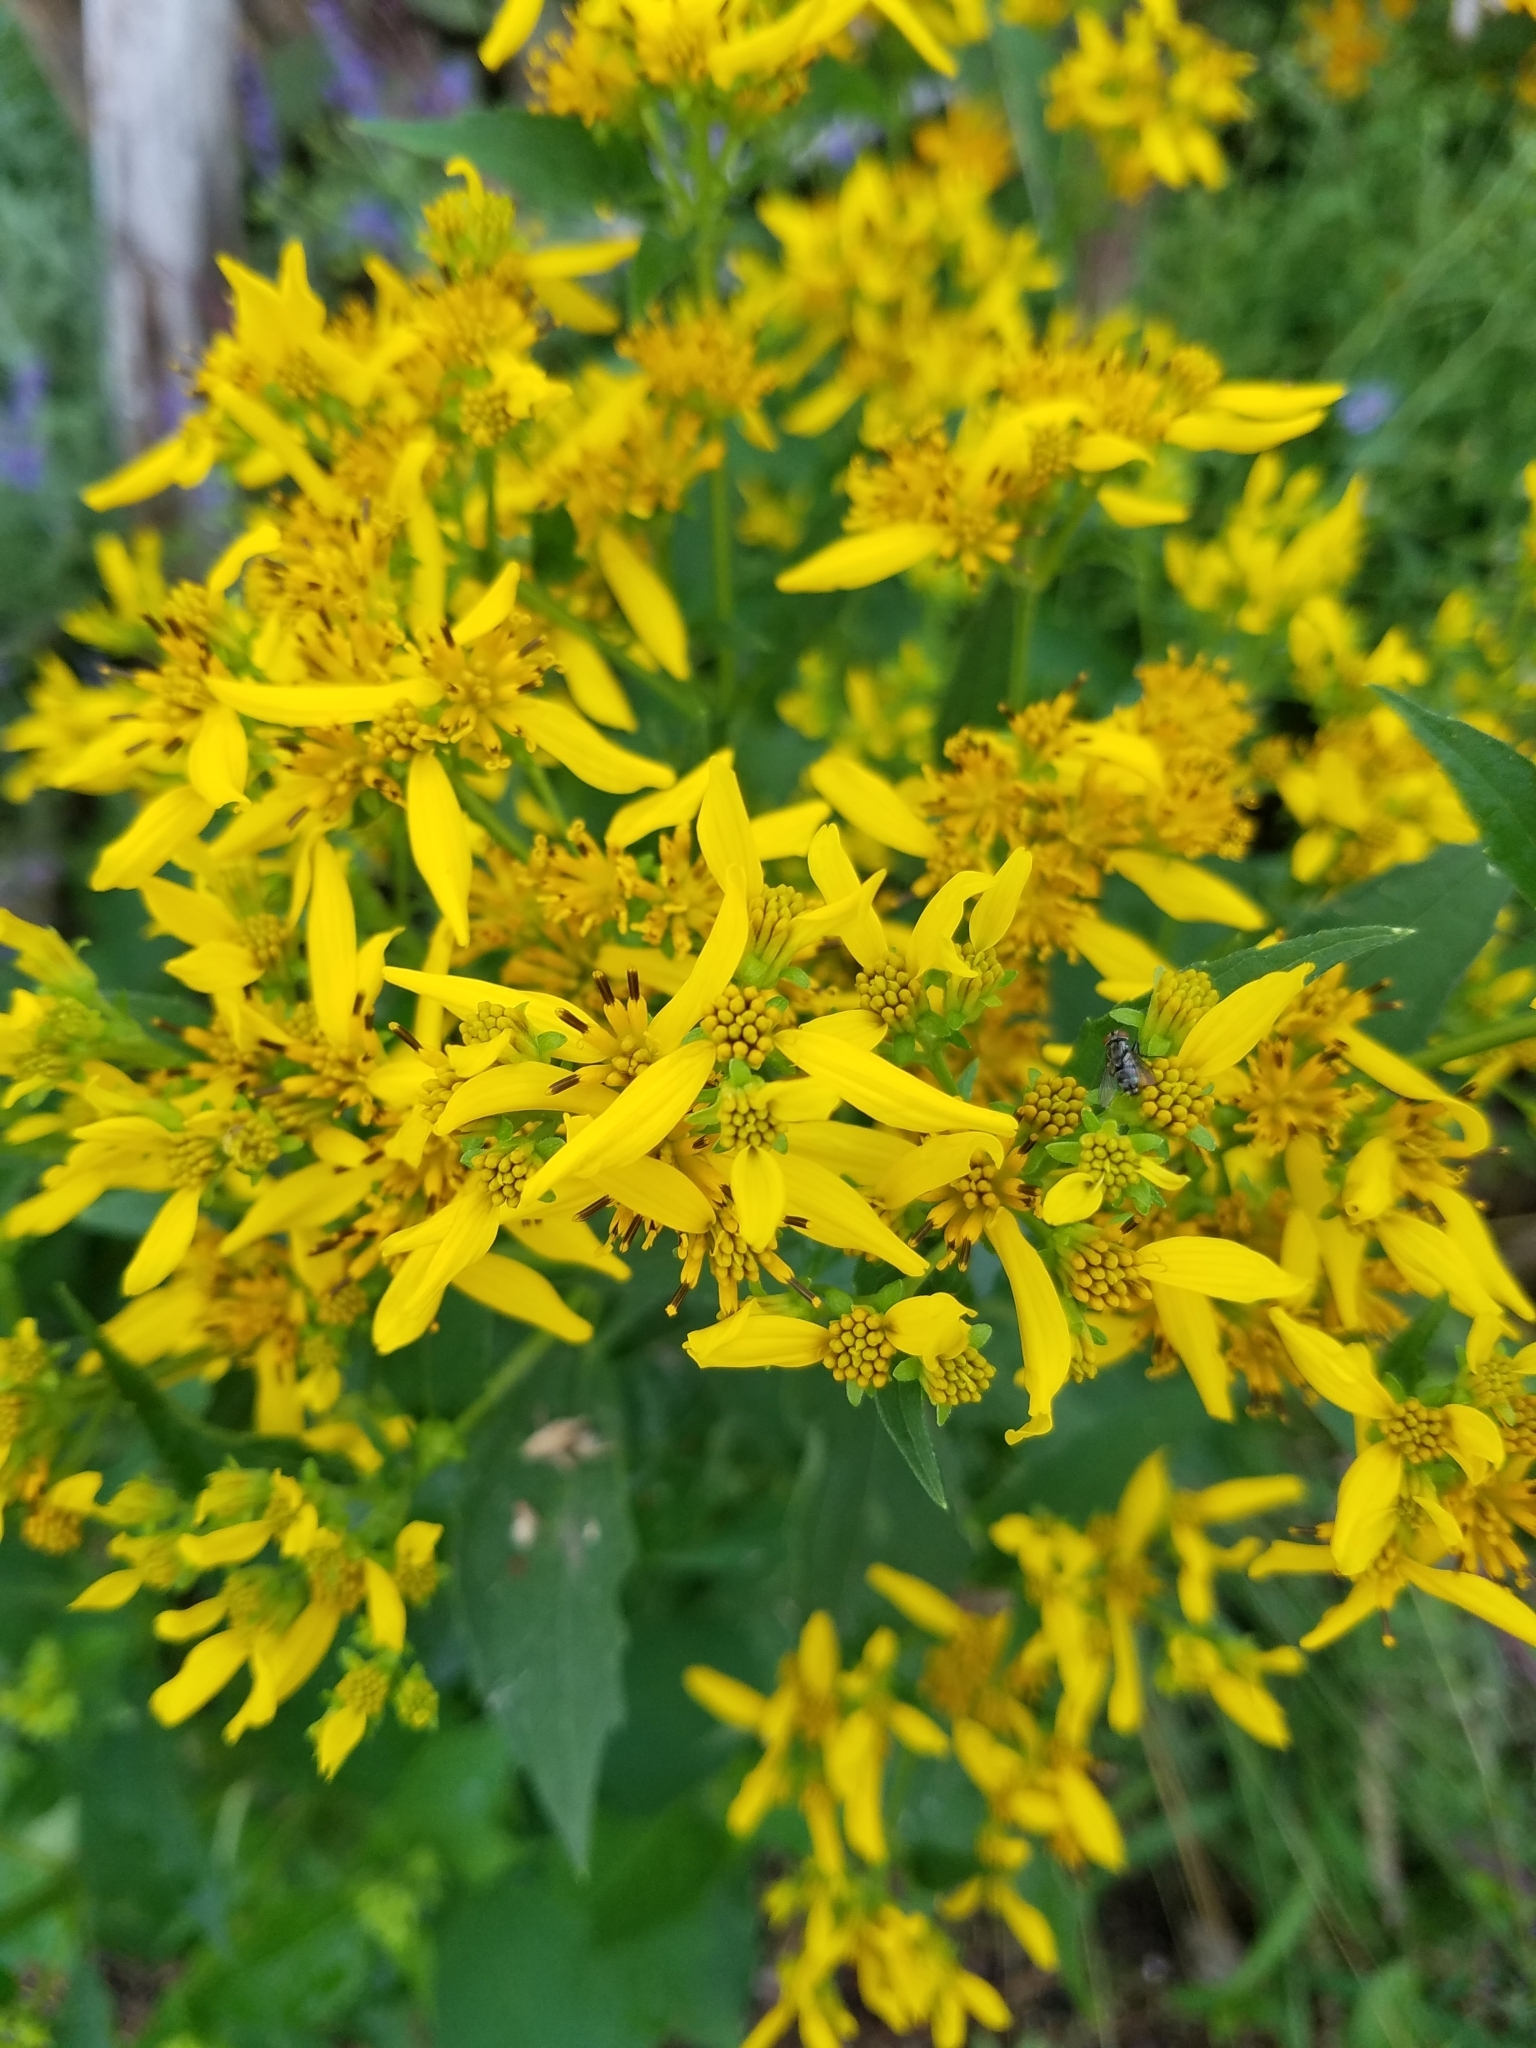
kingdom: Plantae
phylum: Tracheophyta
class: Magnoliopsida
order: Asterales
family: Asteraceae
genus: Verbesina
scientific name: Verbesina occidentalis
